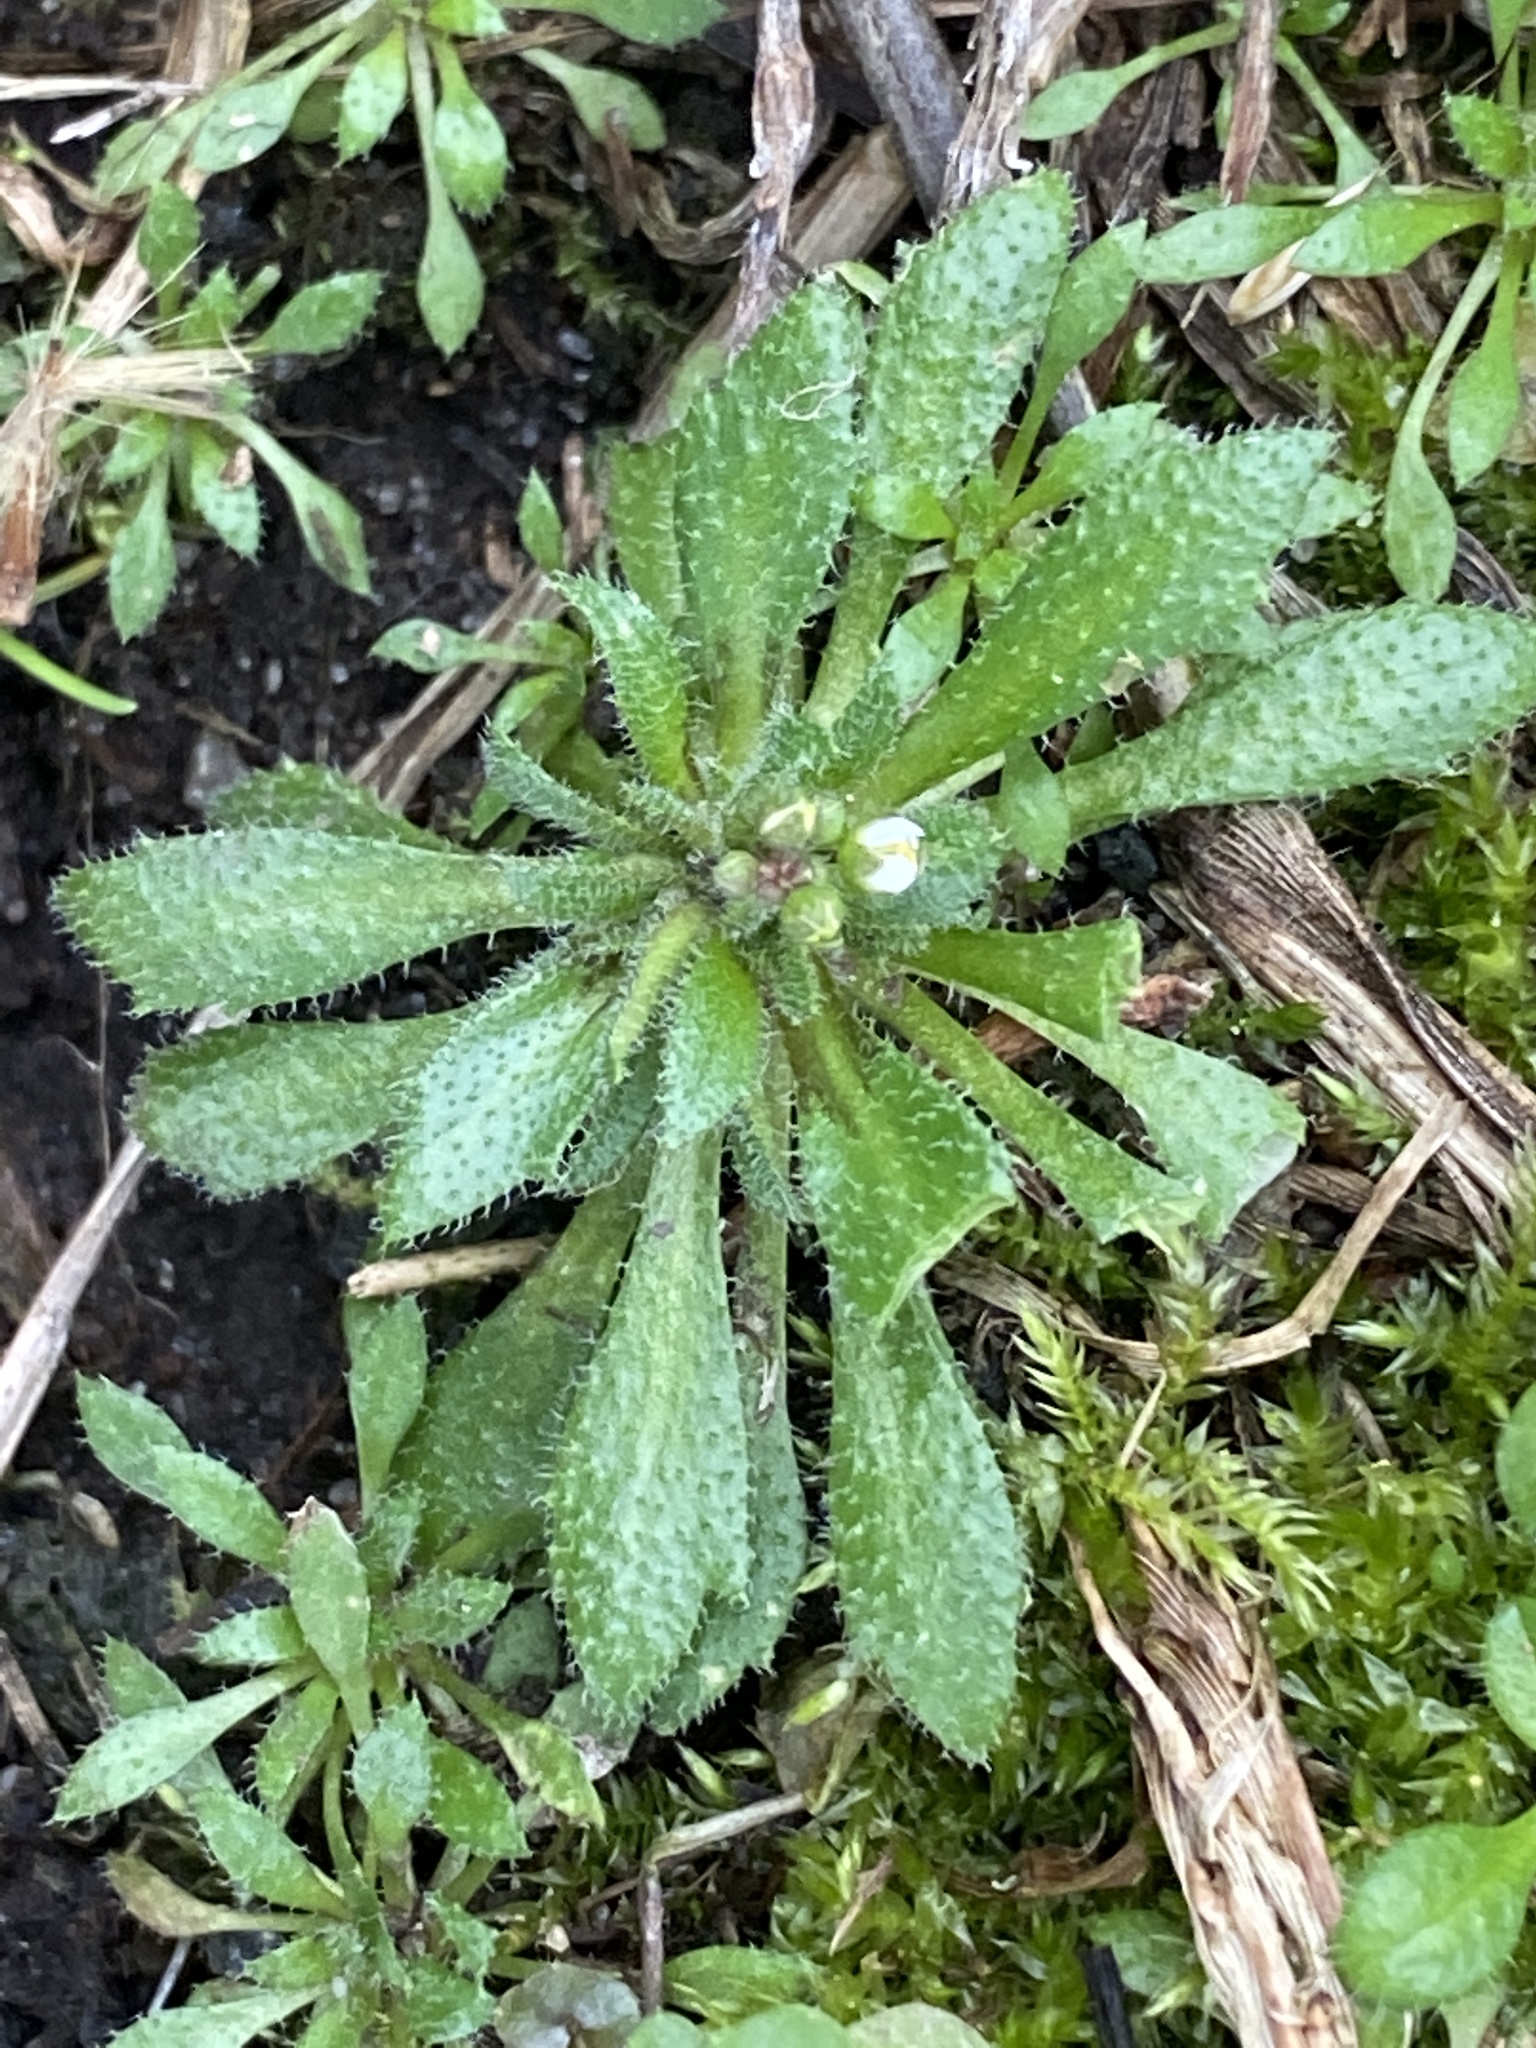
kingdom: Plantae
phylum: Tracheophyta
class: Magnoliopsida
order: Brassicales
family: Brassicaceae
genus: Draba
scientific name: Draba verna
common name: Spring draba
